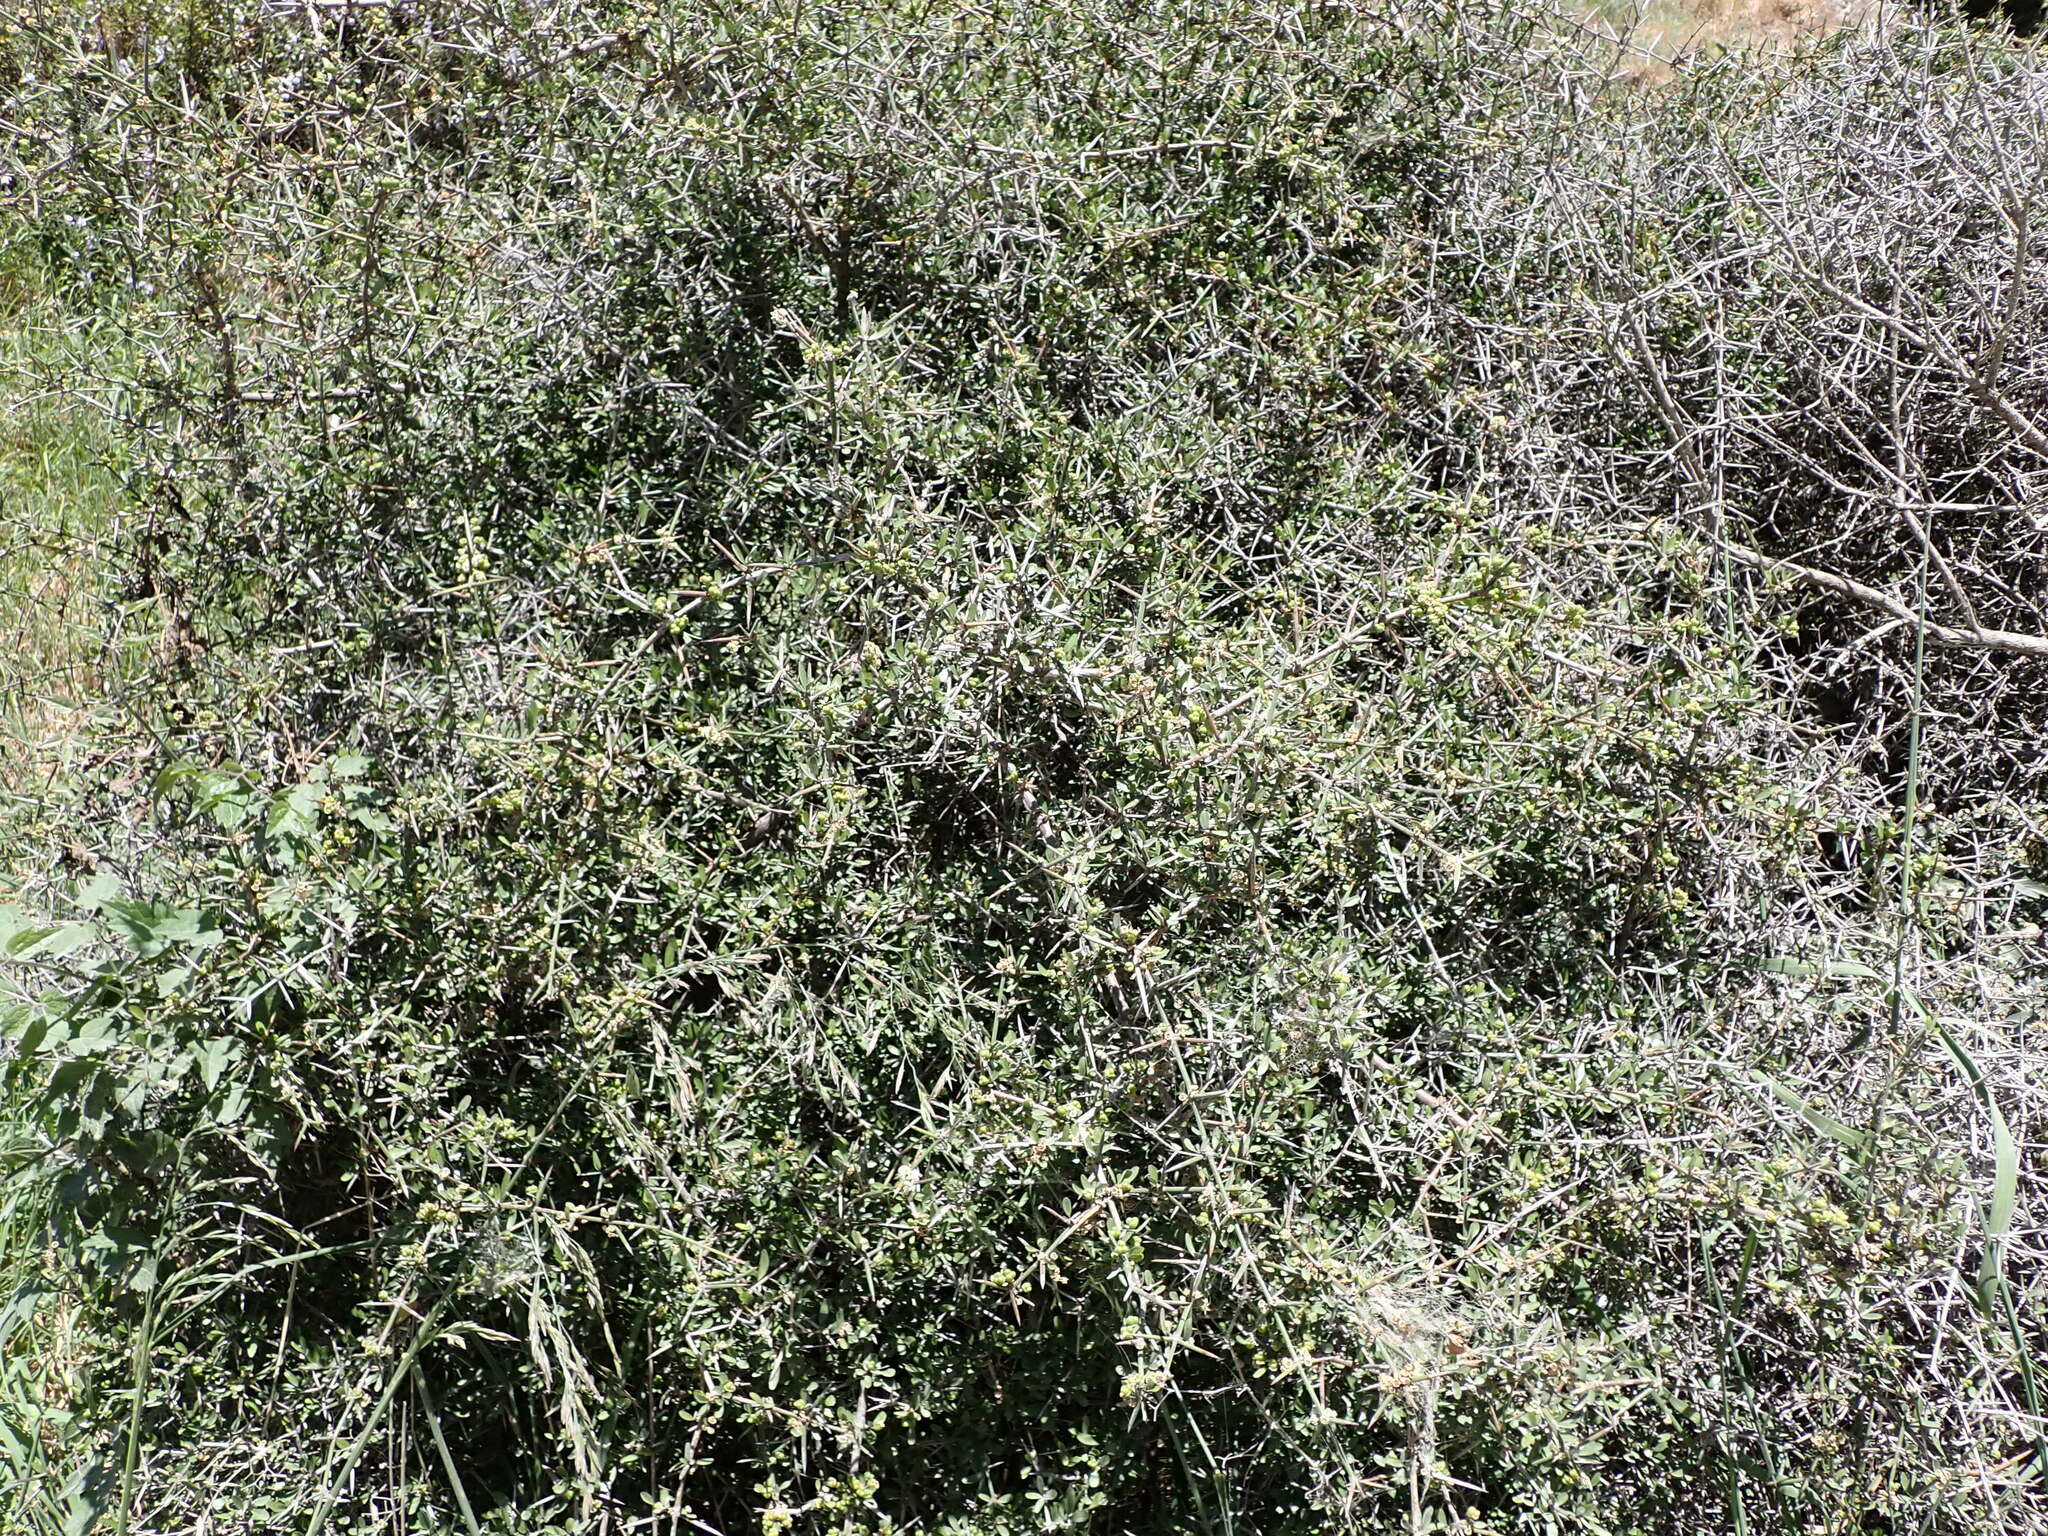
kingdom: Plantae
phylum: Tracheophyta
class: Magnoliopsida
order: Rosales
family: Rhamnaceae
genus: Discaria
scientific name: Discaria toumatou
